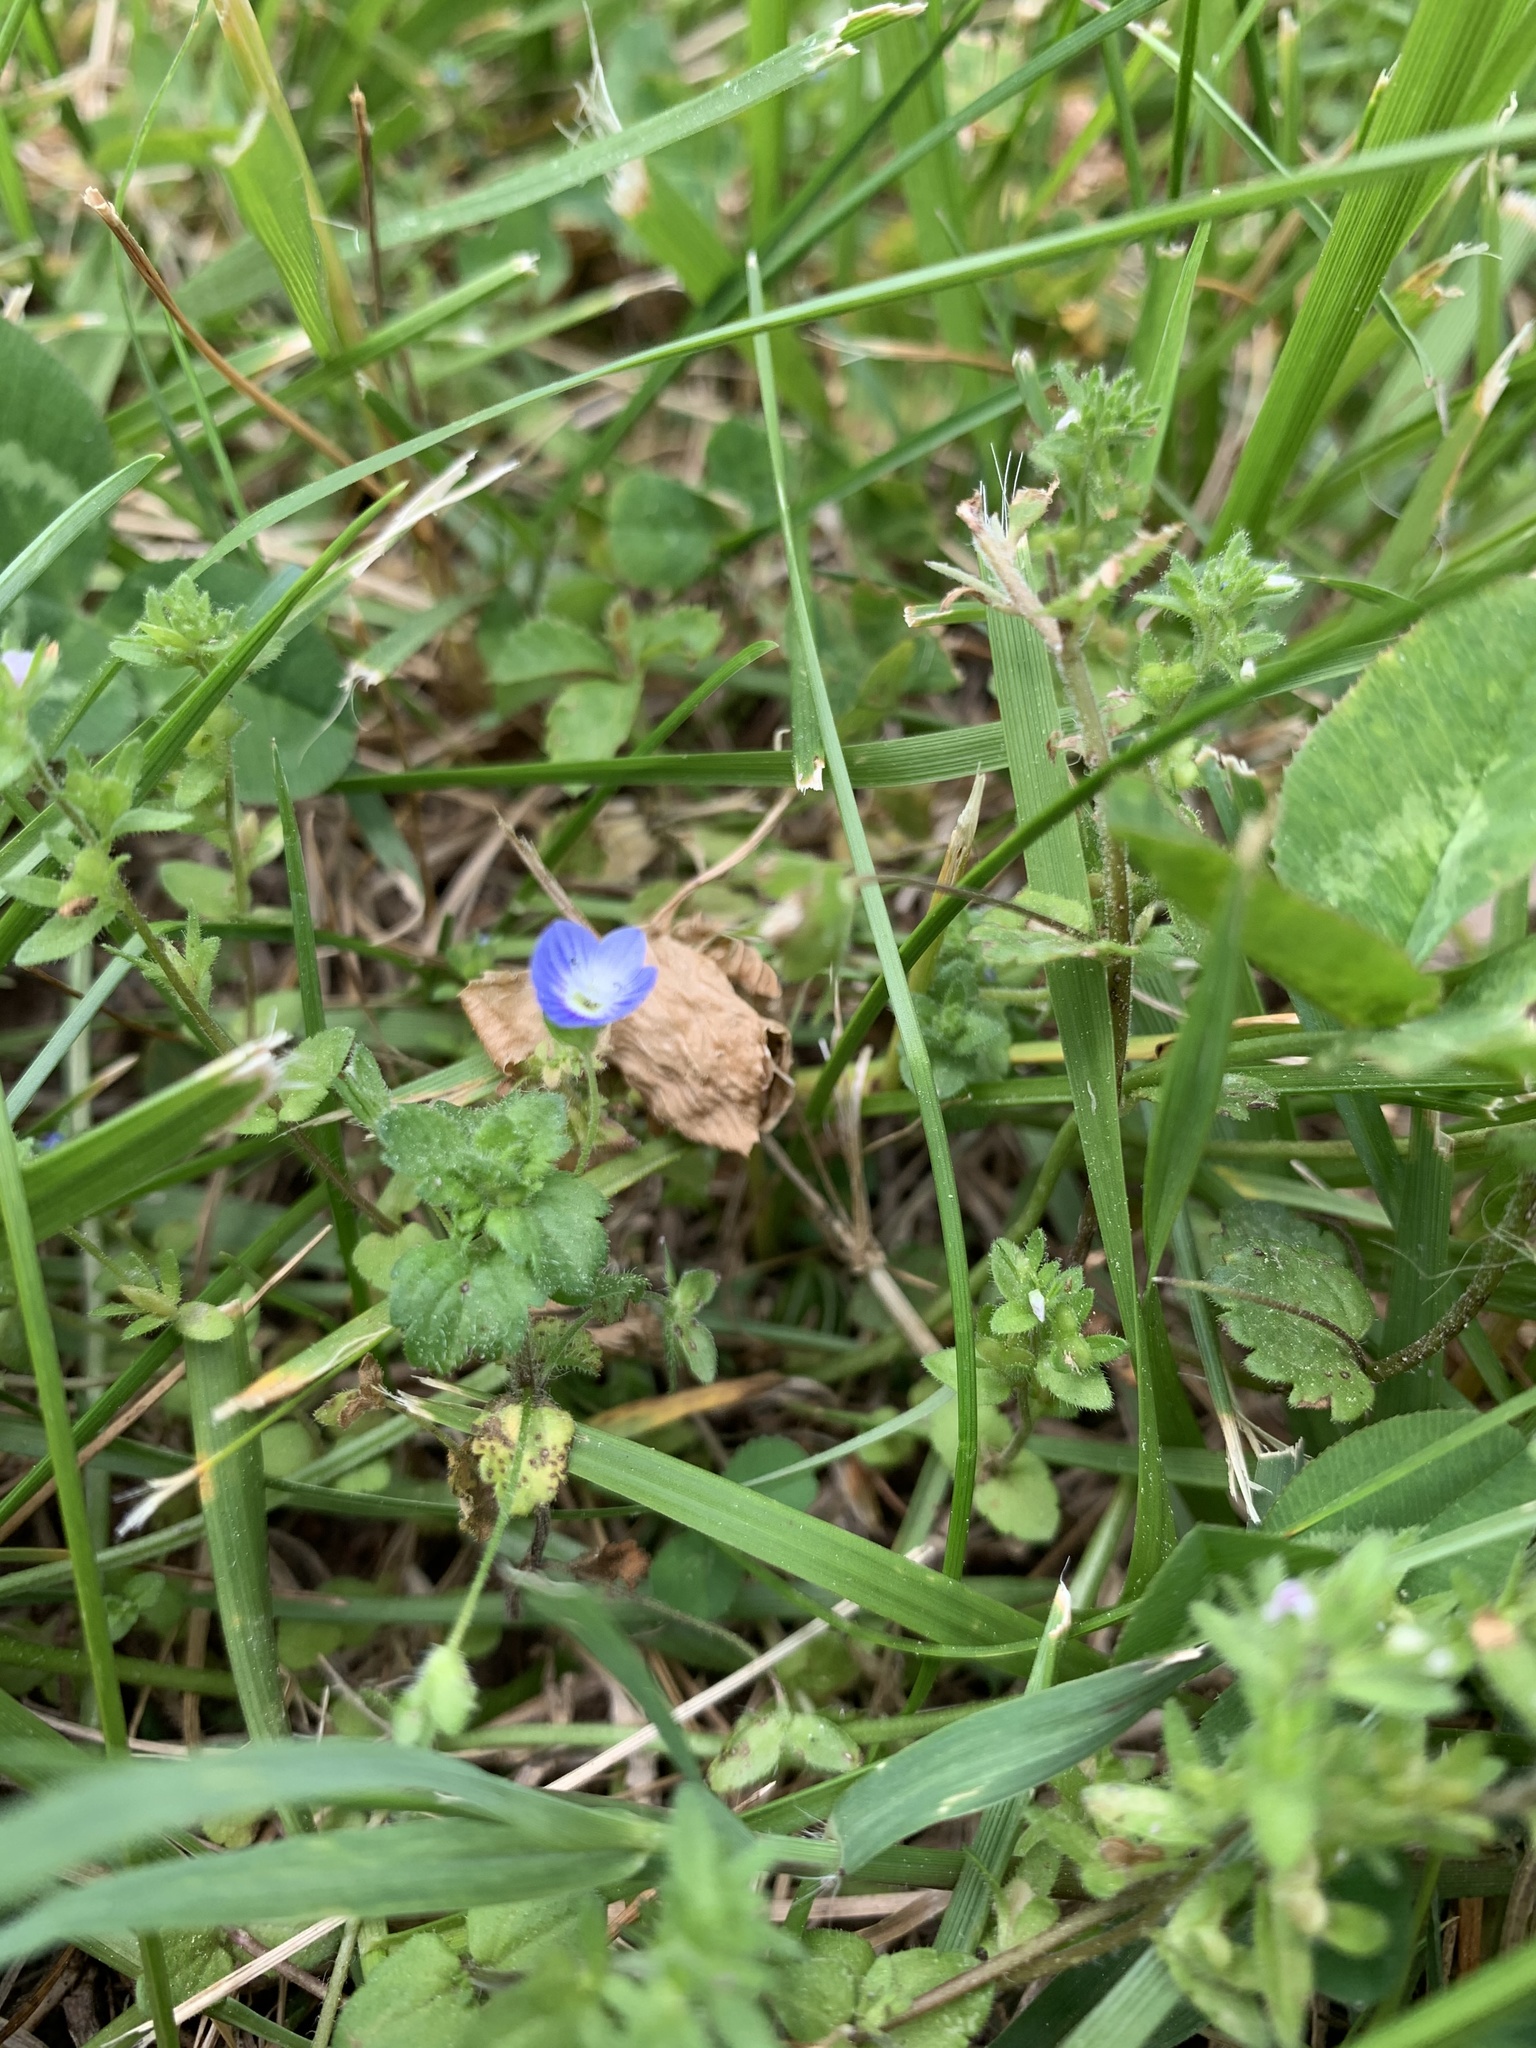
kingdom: Plantae
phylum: Tracheophyta
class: Magnoliopsida
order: Lamiales
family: Plantaginaceae
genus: Veronica
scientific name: Veronica persica
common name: Common field-speedwell
